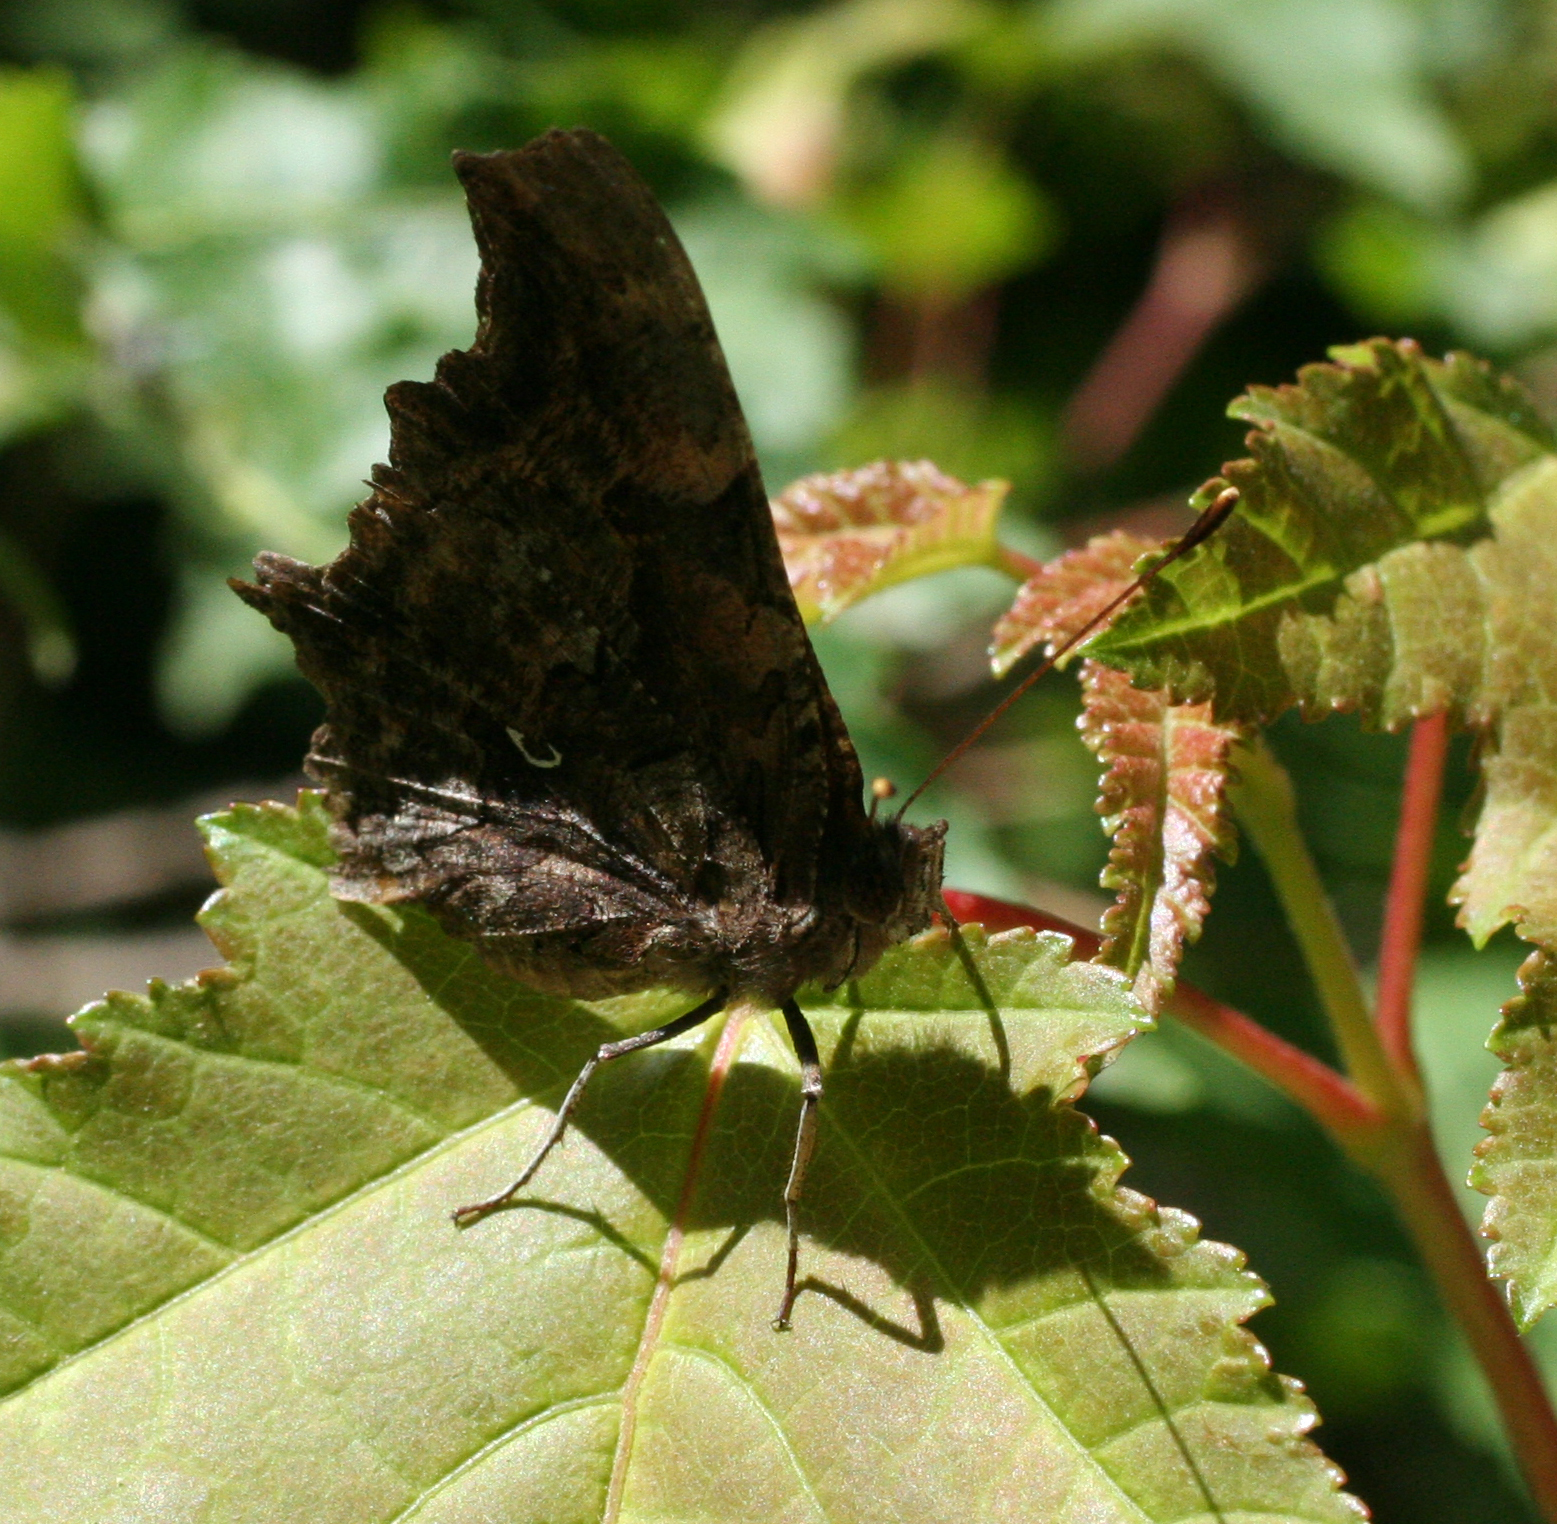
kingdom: Animalia
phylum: Arthropoda
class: Insecta
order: Lepidoptera
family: Nymphalidae
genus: Polygonia
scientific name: Polygonia c-album
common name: Comma
